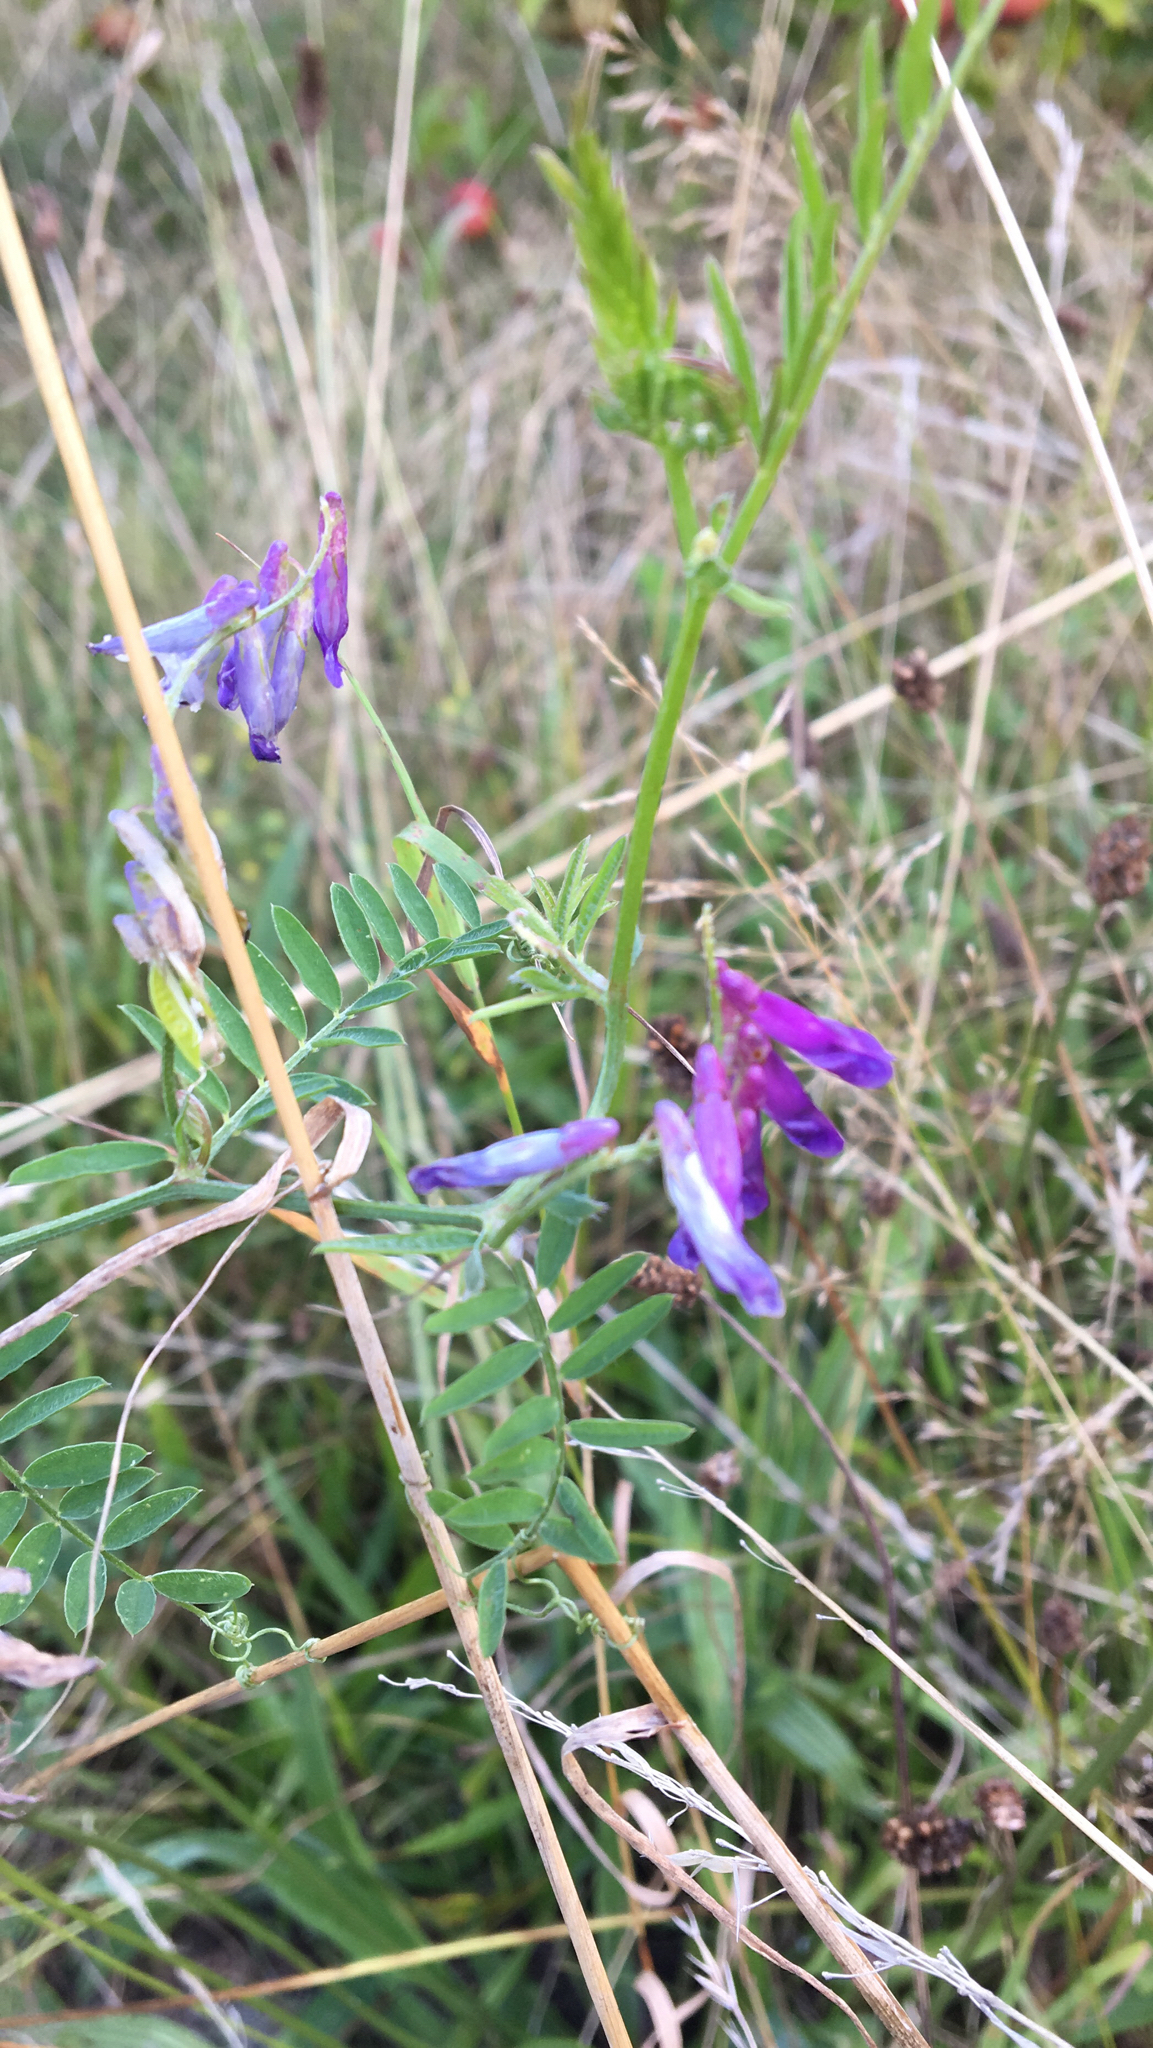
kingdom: Plantae
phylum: Tracheophyta
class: Magnoliopsida
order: Fabales
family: Fabaceae
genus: Vicia
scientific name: Vicia cracca
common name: Bird vetch
